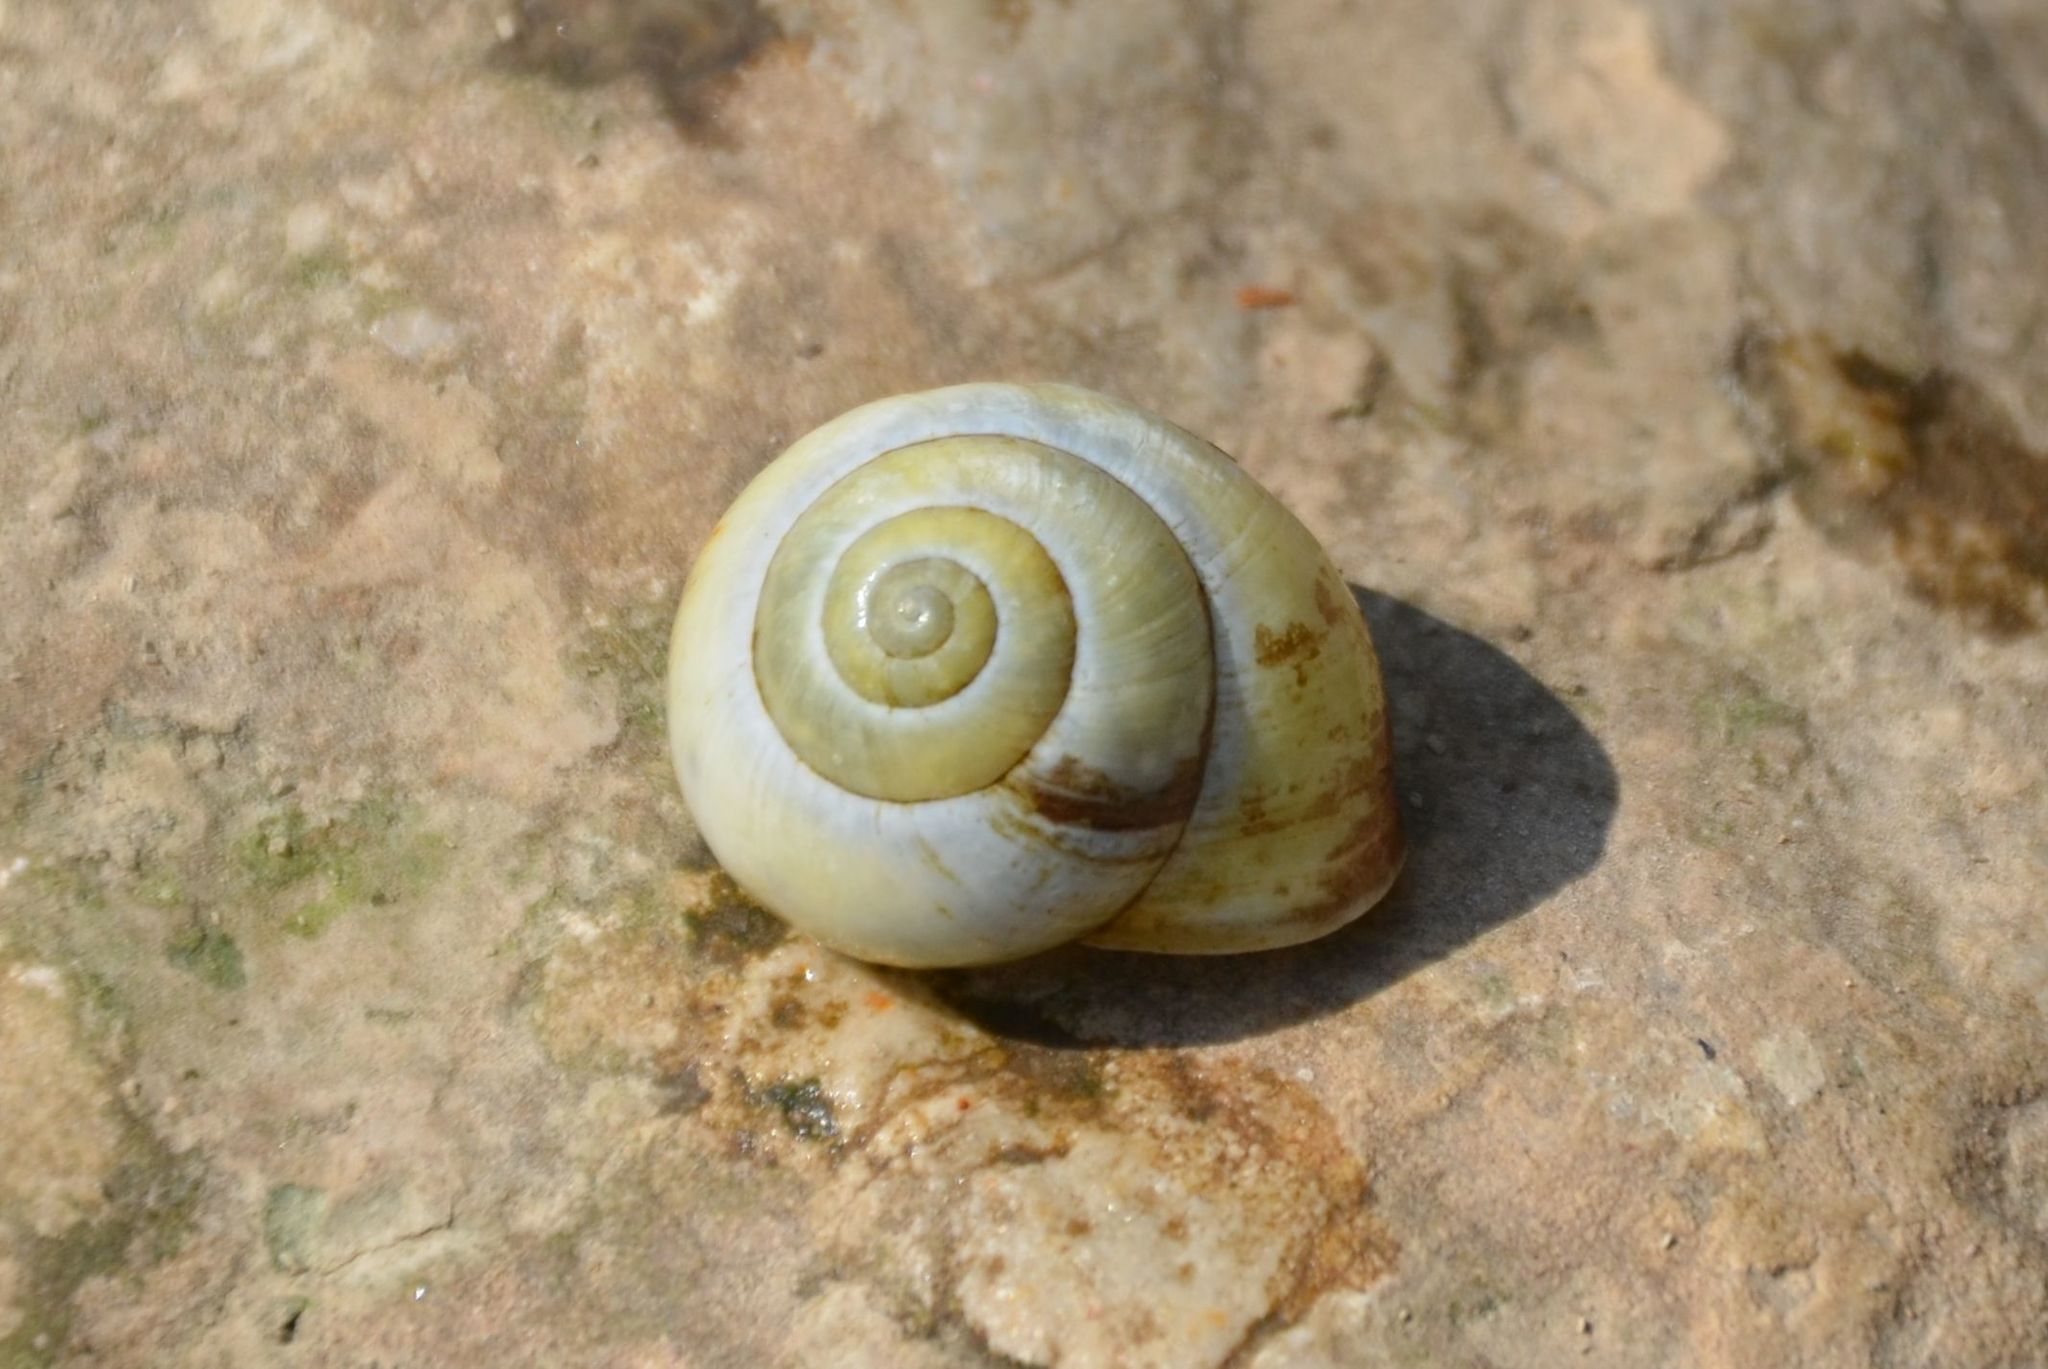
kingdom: Animalia
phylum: Mollusca
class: Gastropoda
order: Stylommatophora
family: Helicidae
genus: Cepaea
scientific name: Cepaea nemoralis
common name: Grovesnail
